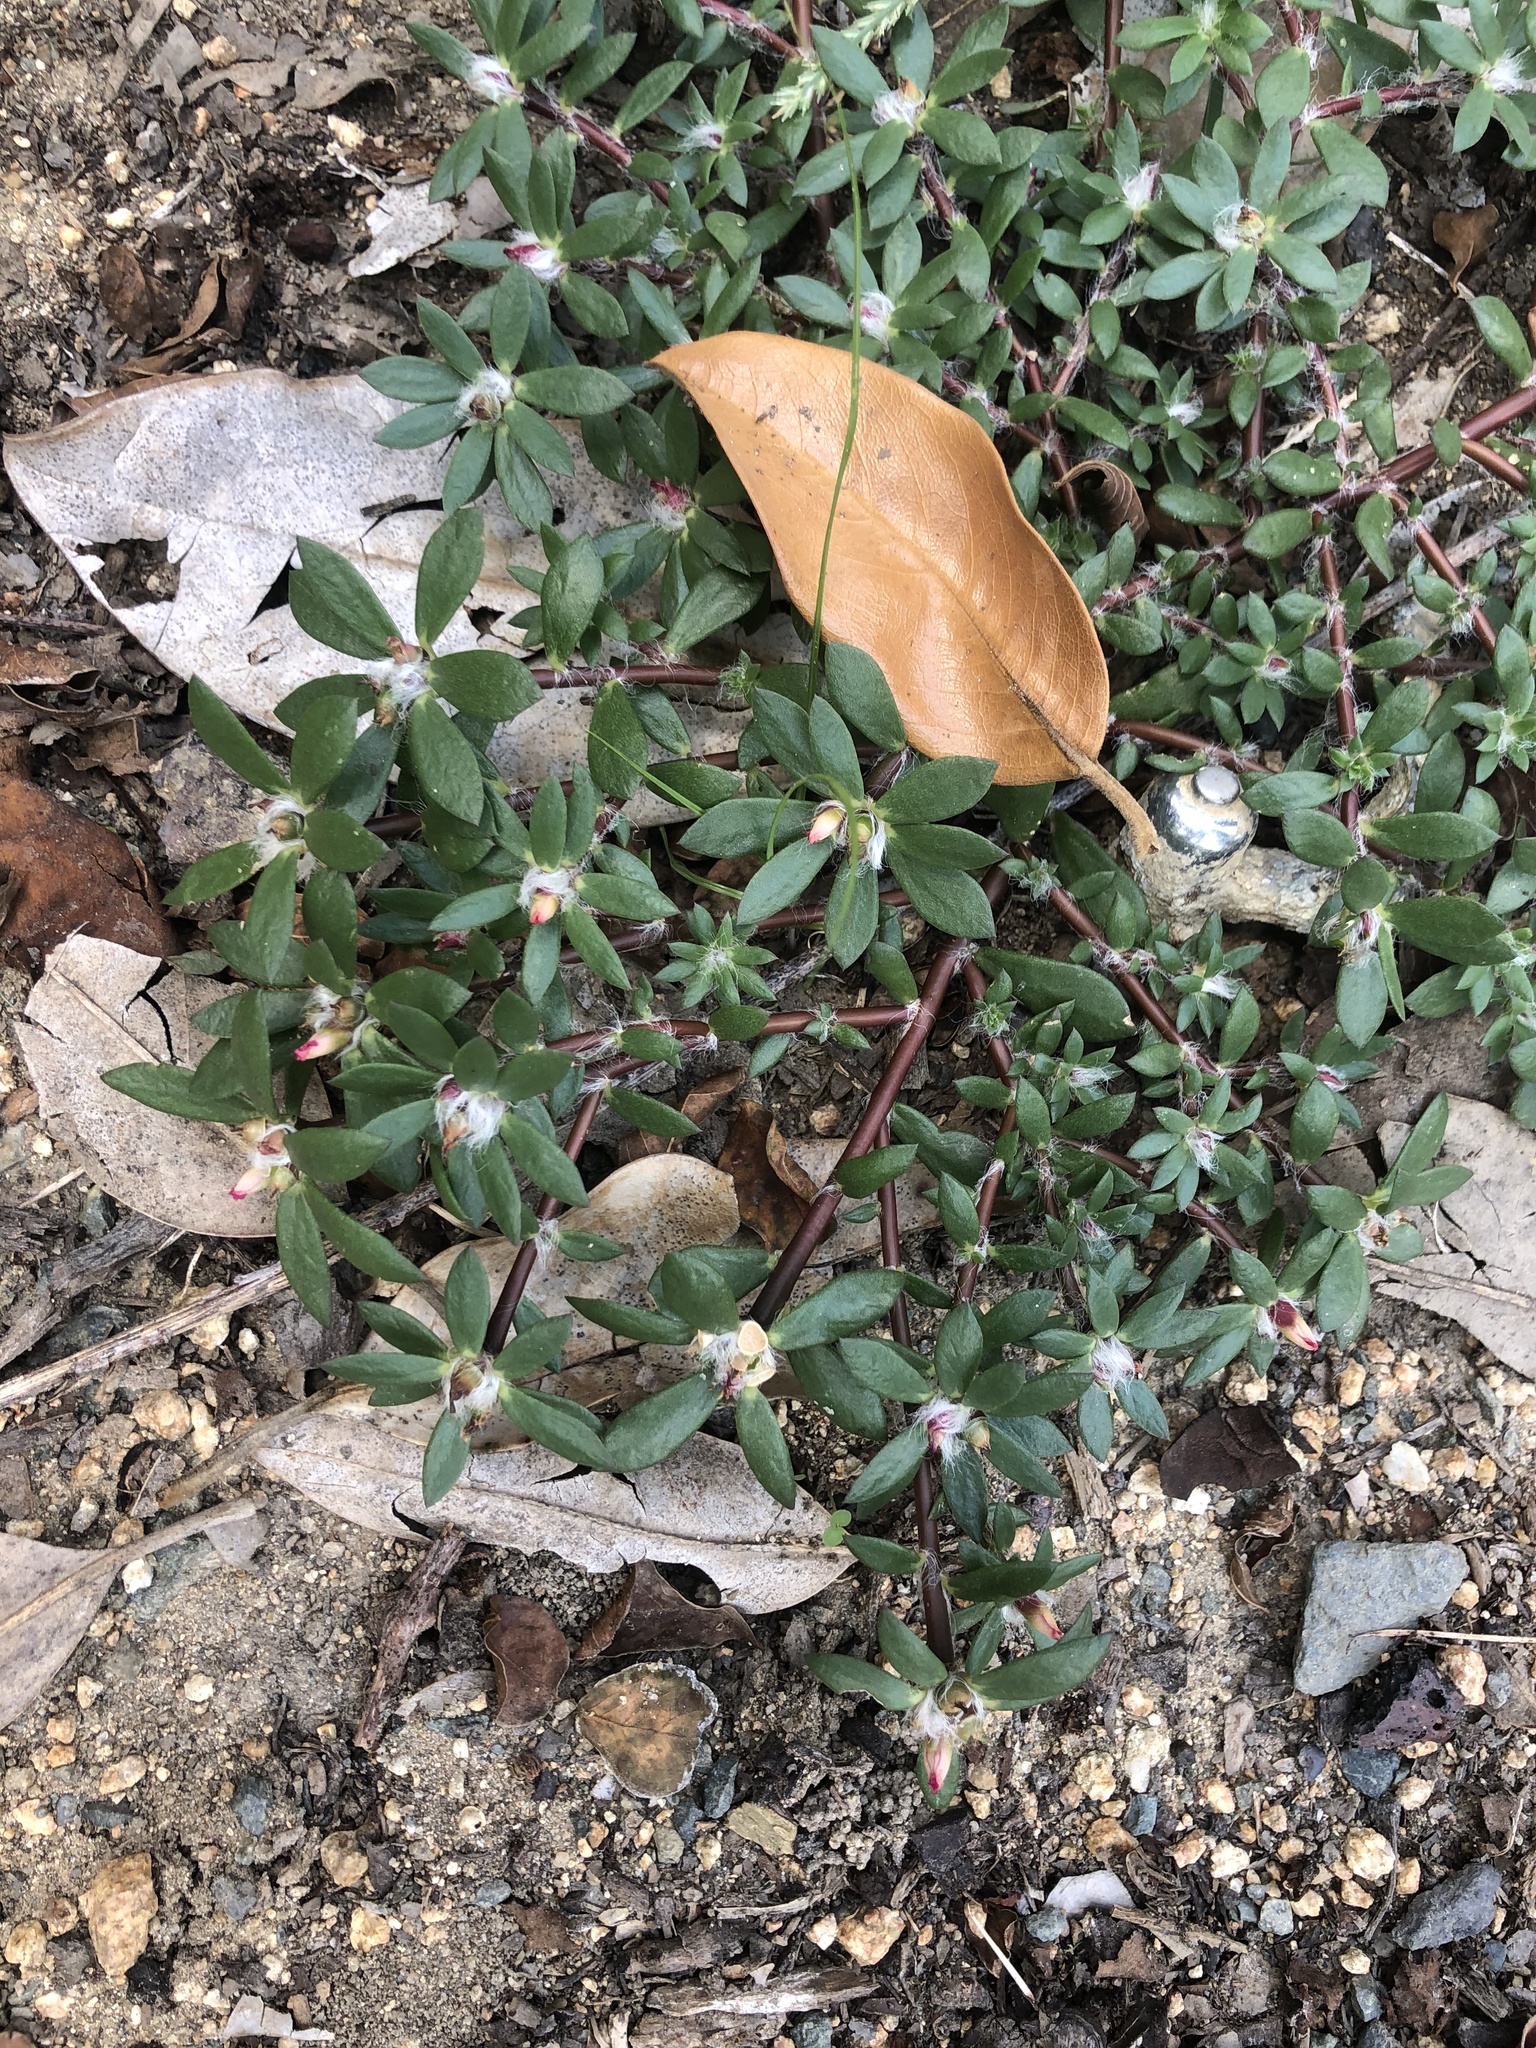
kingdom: Plantae
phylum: Tracheophyta
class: Magnoliopsida
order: Caryophyllales
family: Portulacaceae
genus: Portulaca
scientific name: Portulaca amilis
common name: Paraguayan purslane
